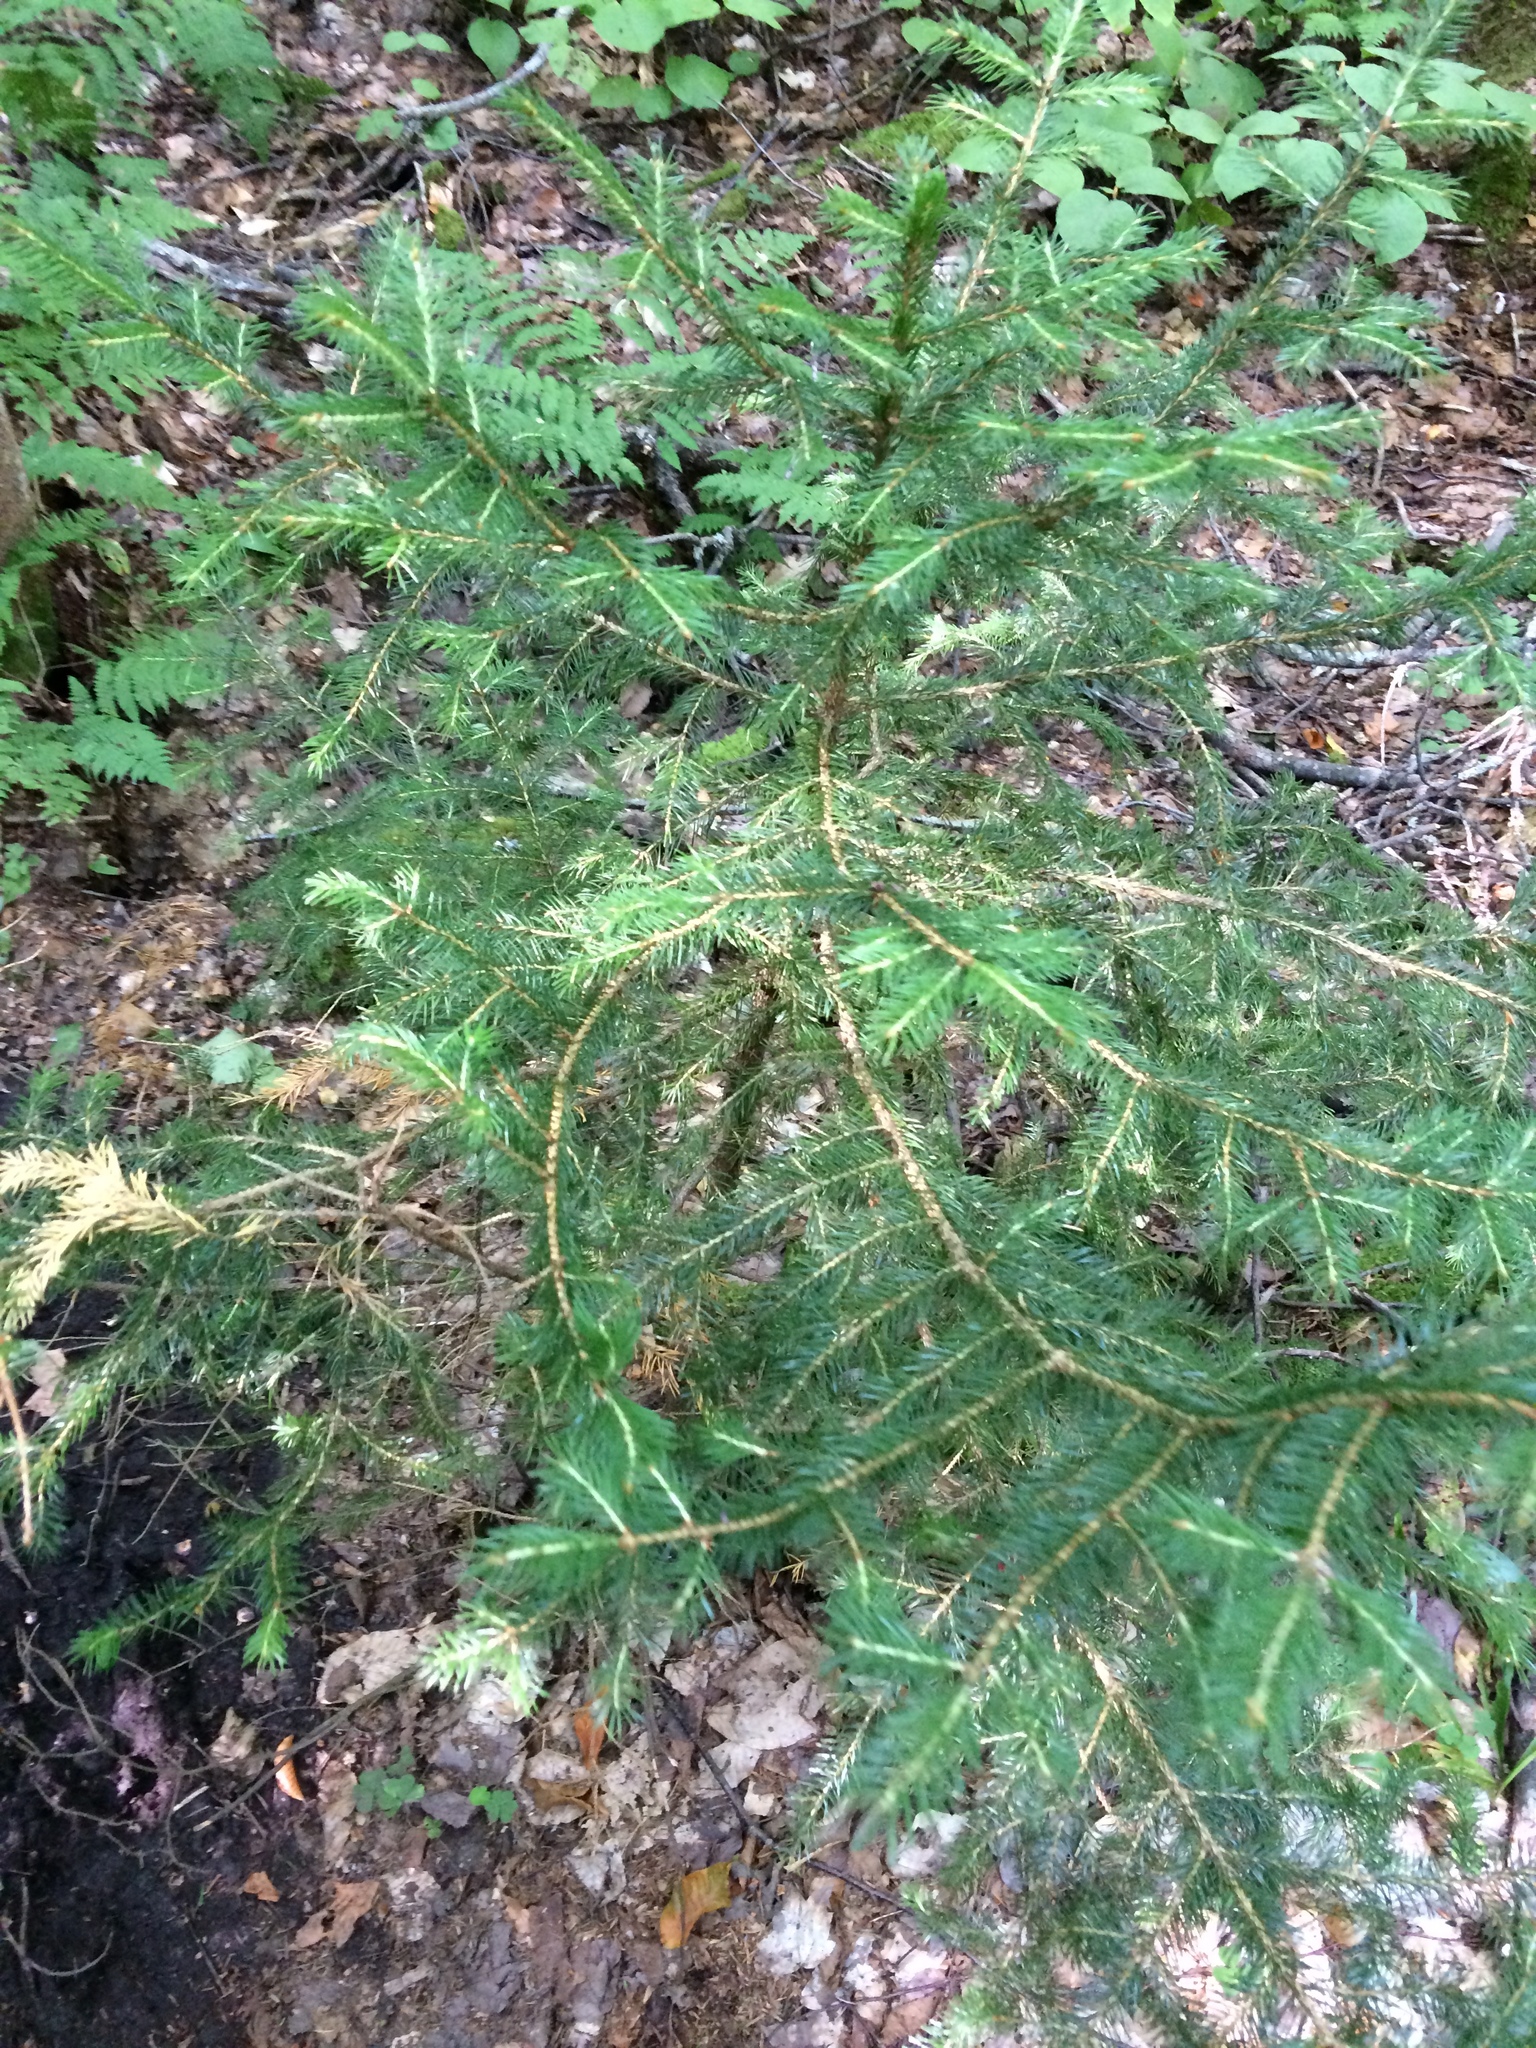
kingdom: Plantae
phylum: Tracheophyta
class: Pinopsida
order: Pinales
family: Pinaceae
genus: Picea
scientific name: Picea rubens
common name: Red spruce
